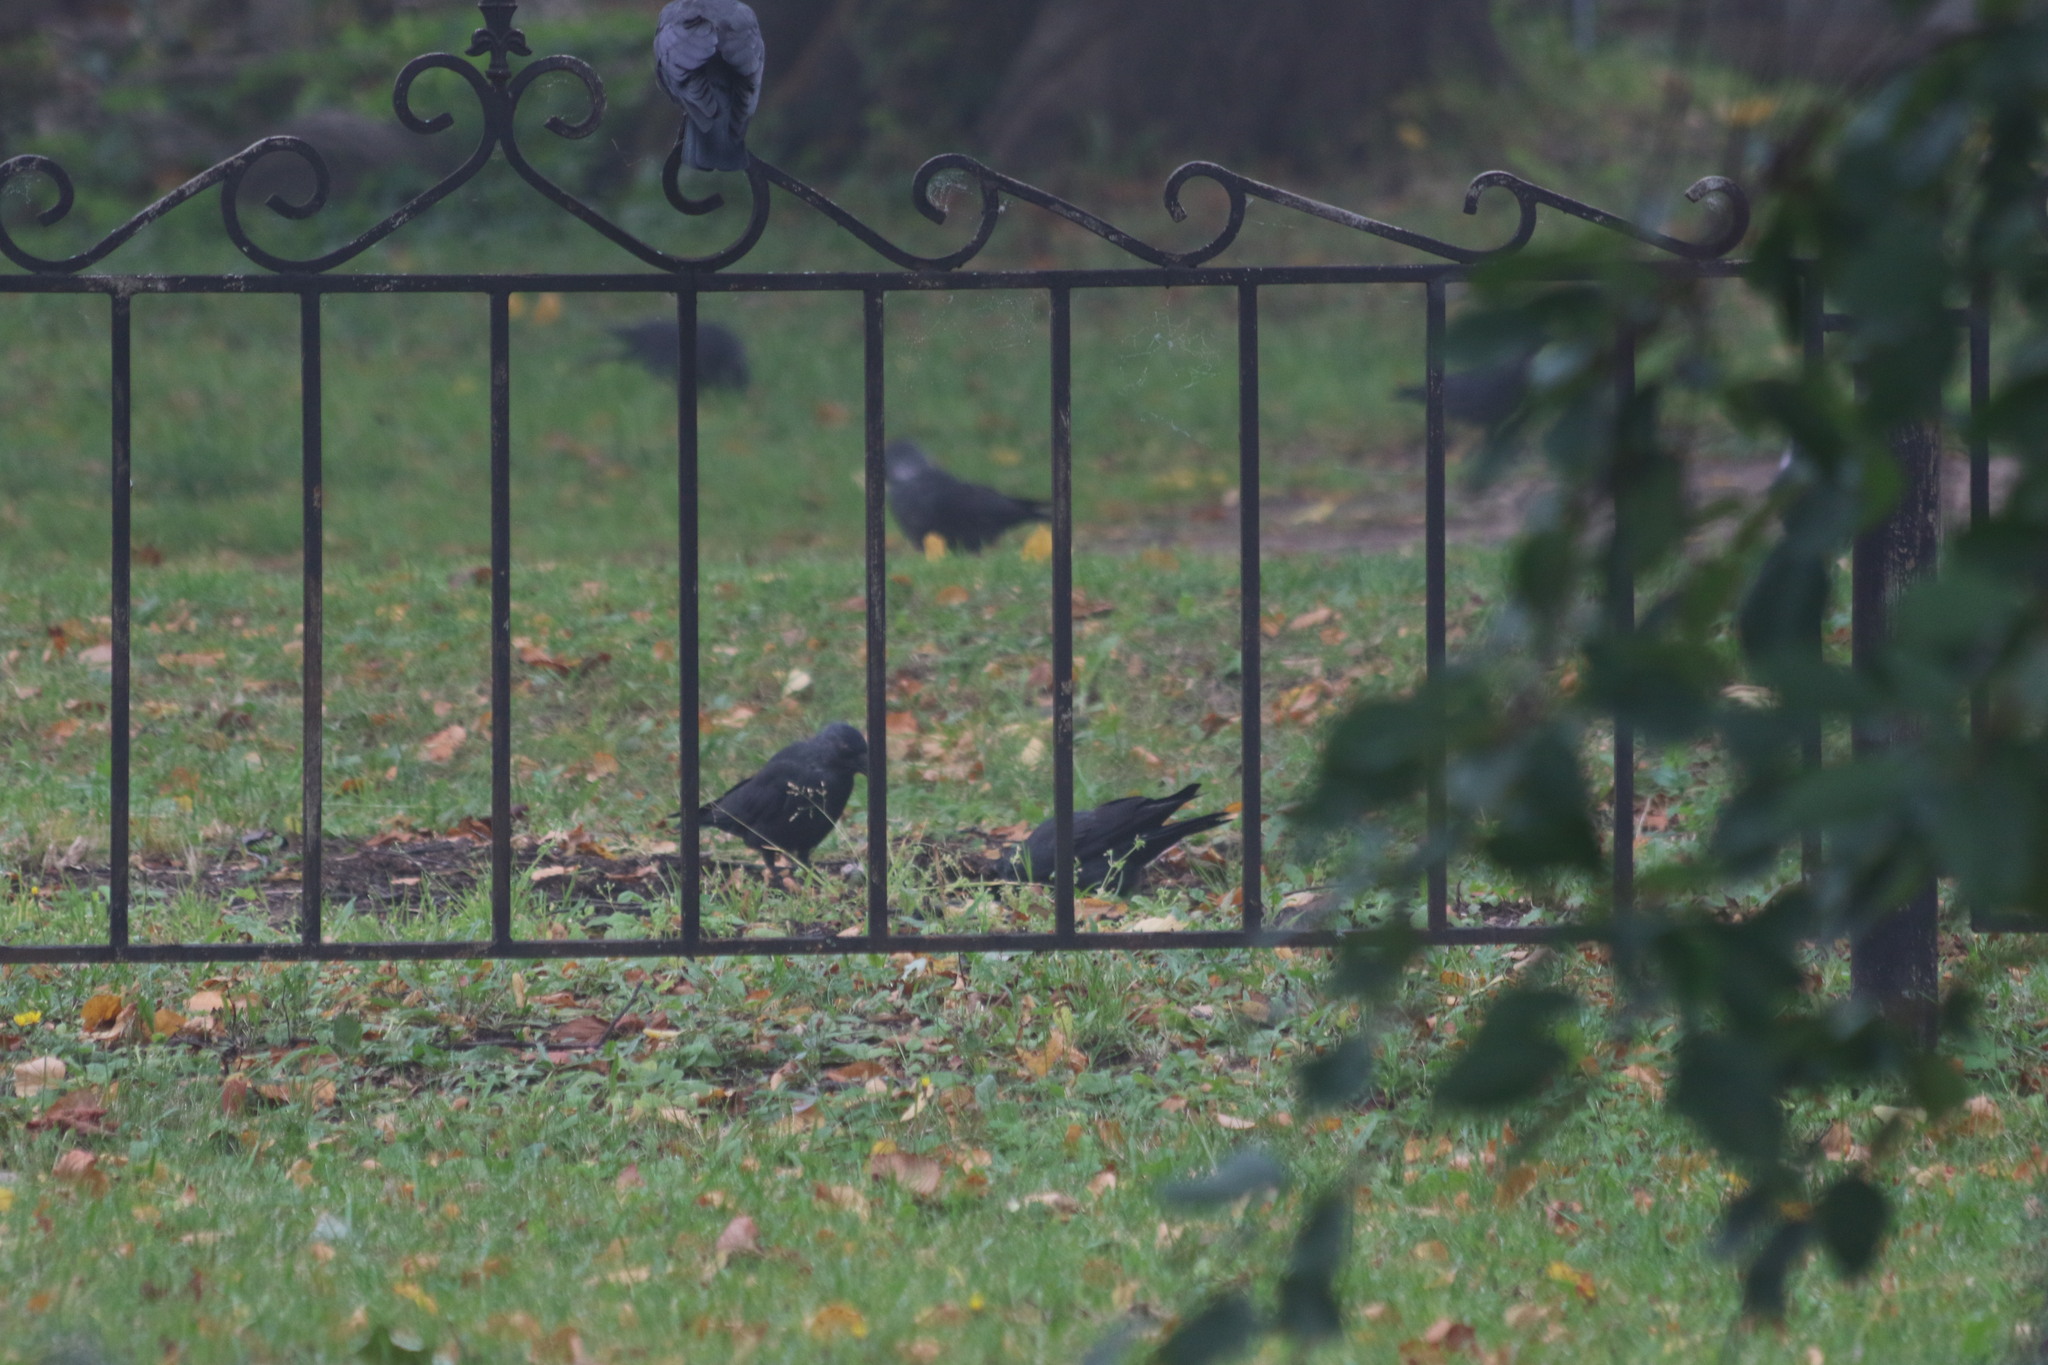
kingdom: Animalia
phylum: Chordata
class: Aves
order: Passeriformes
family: Corvidae
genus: Coloeus
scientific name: Coloeus monedula
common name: Western jackdaw
